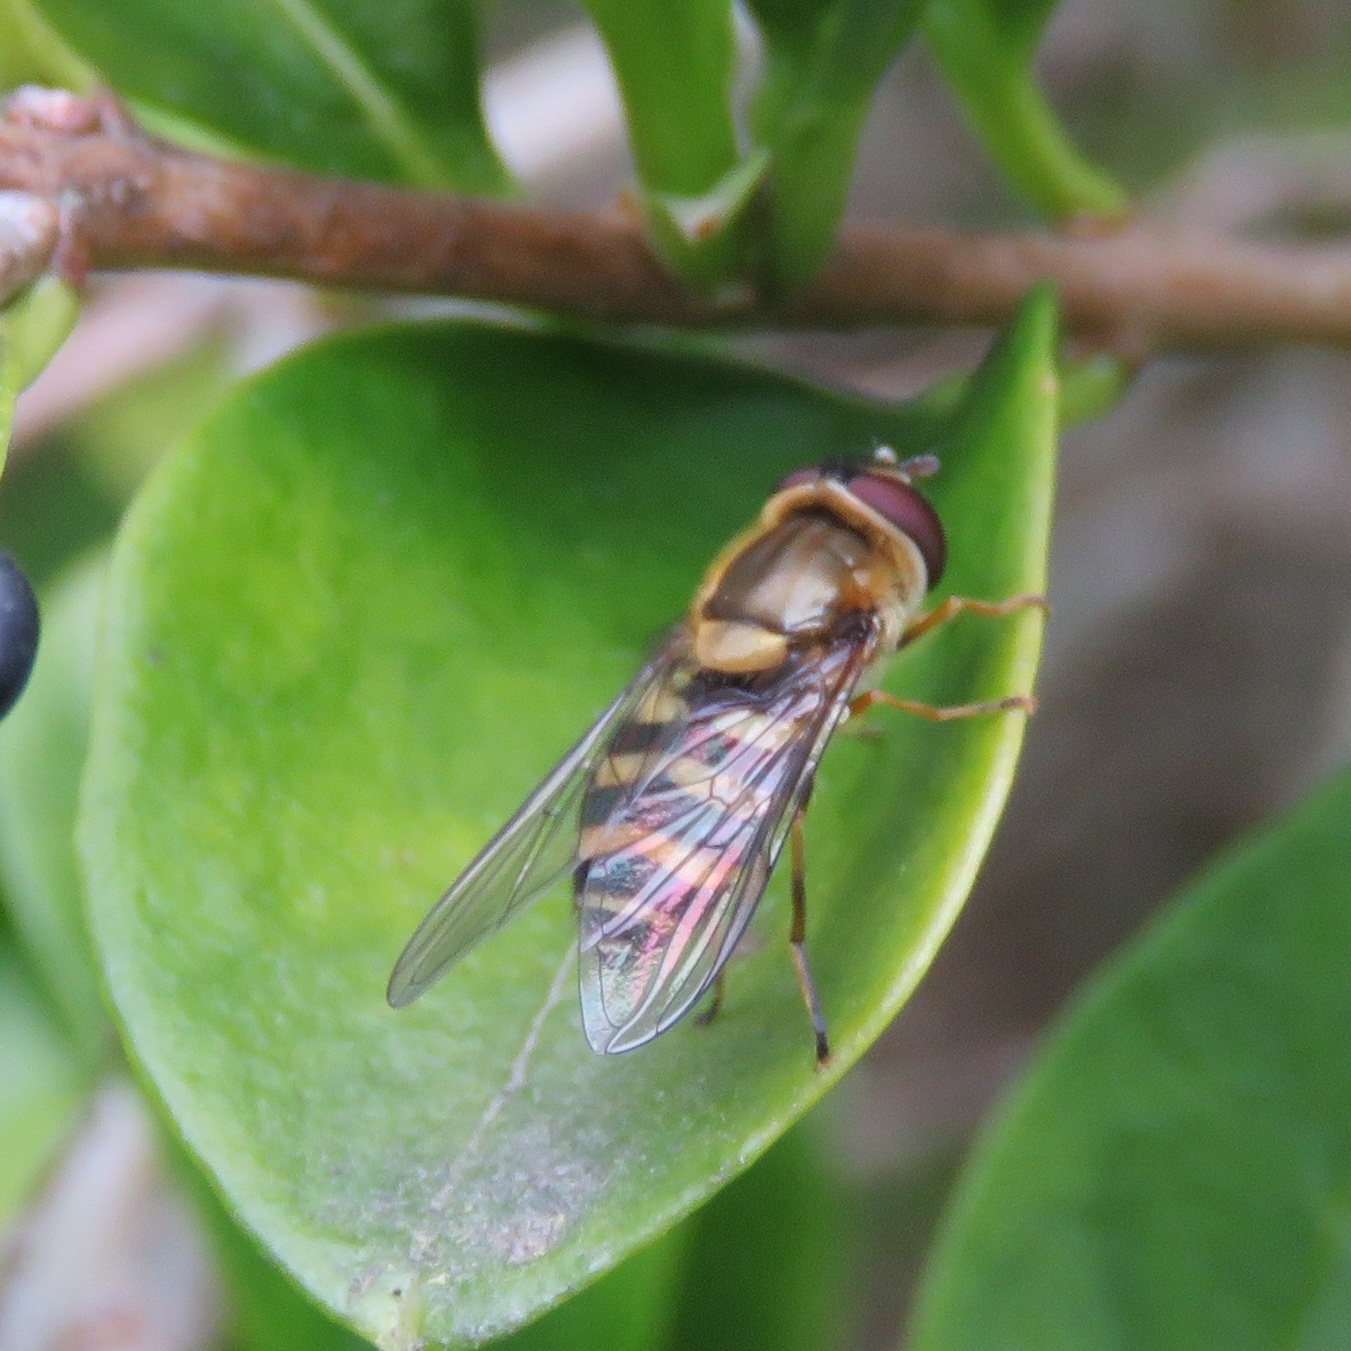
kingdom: Animalia
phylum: Arthropoda
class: Insecta
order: Diptera
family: Syrphidae
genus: Syrphus
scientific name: Syrphus
